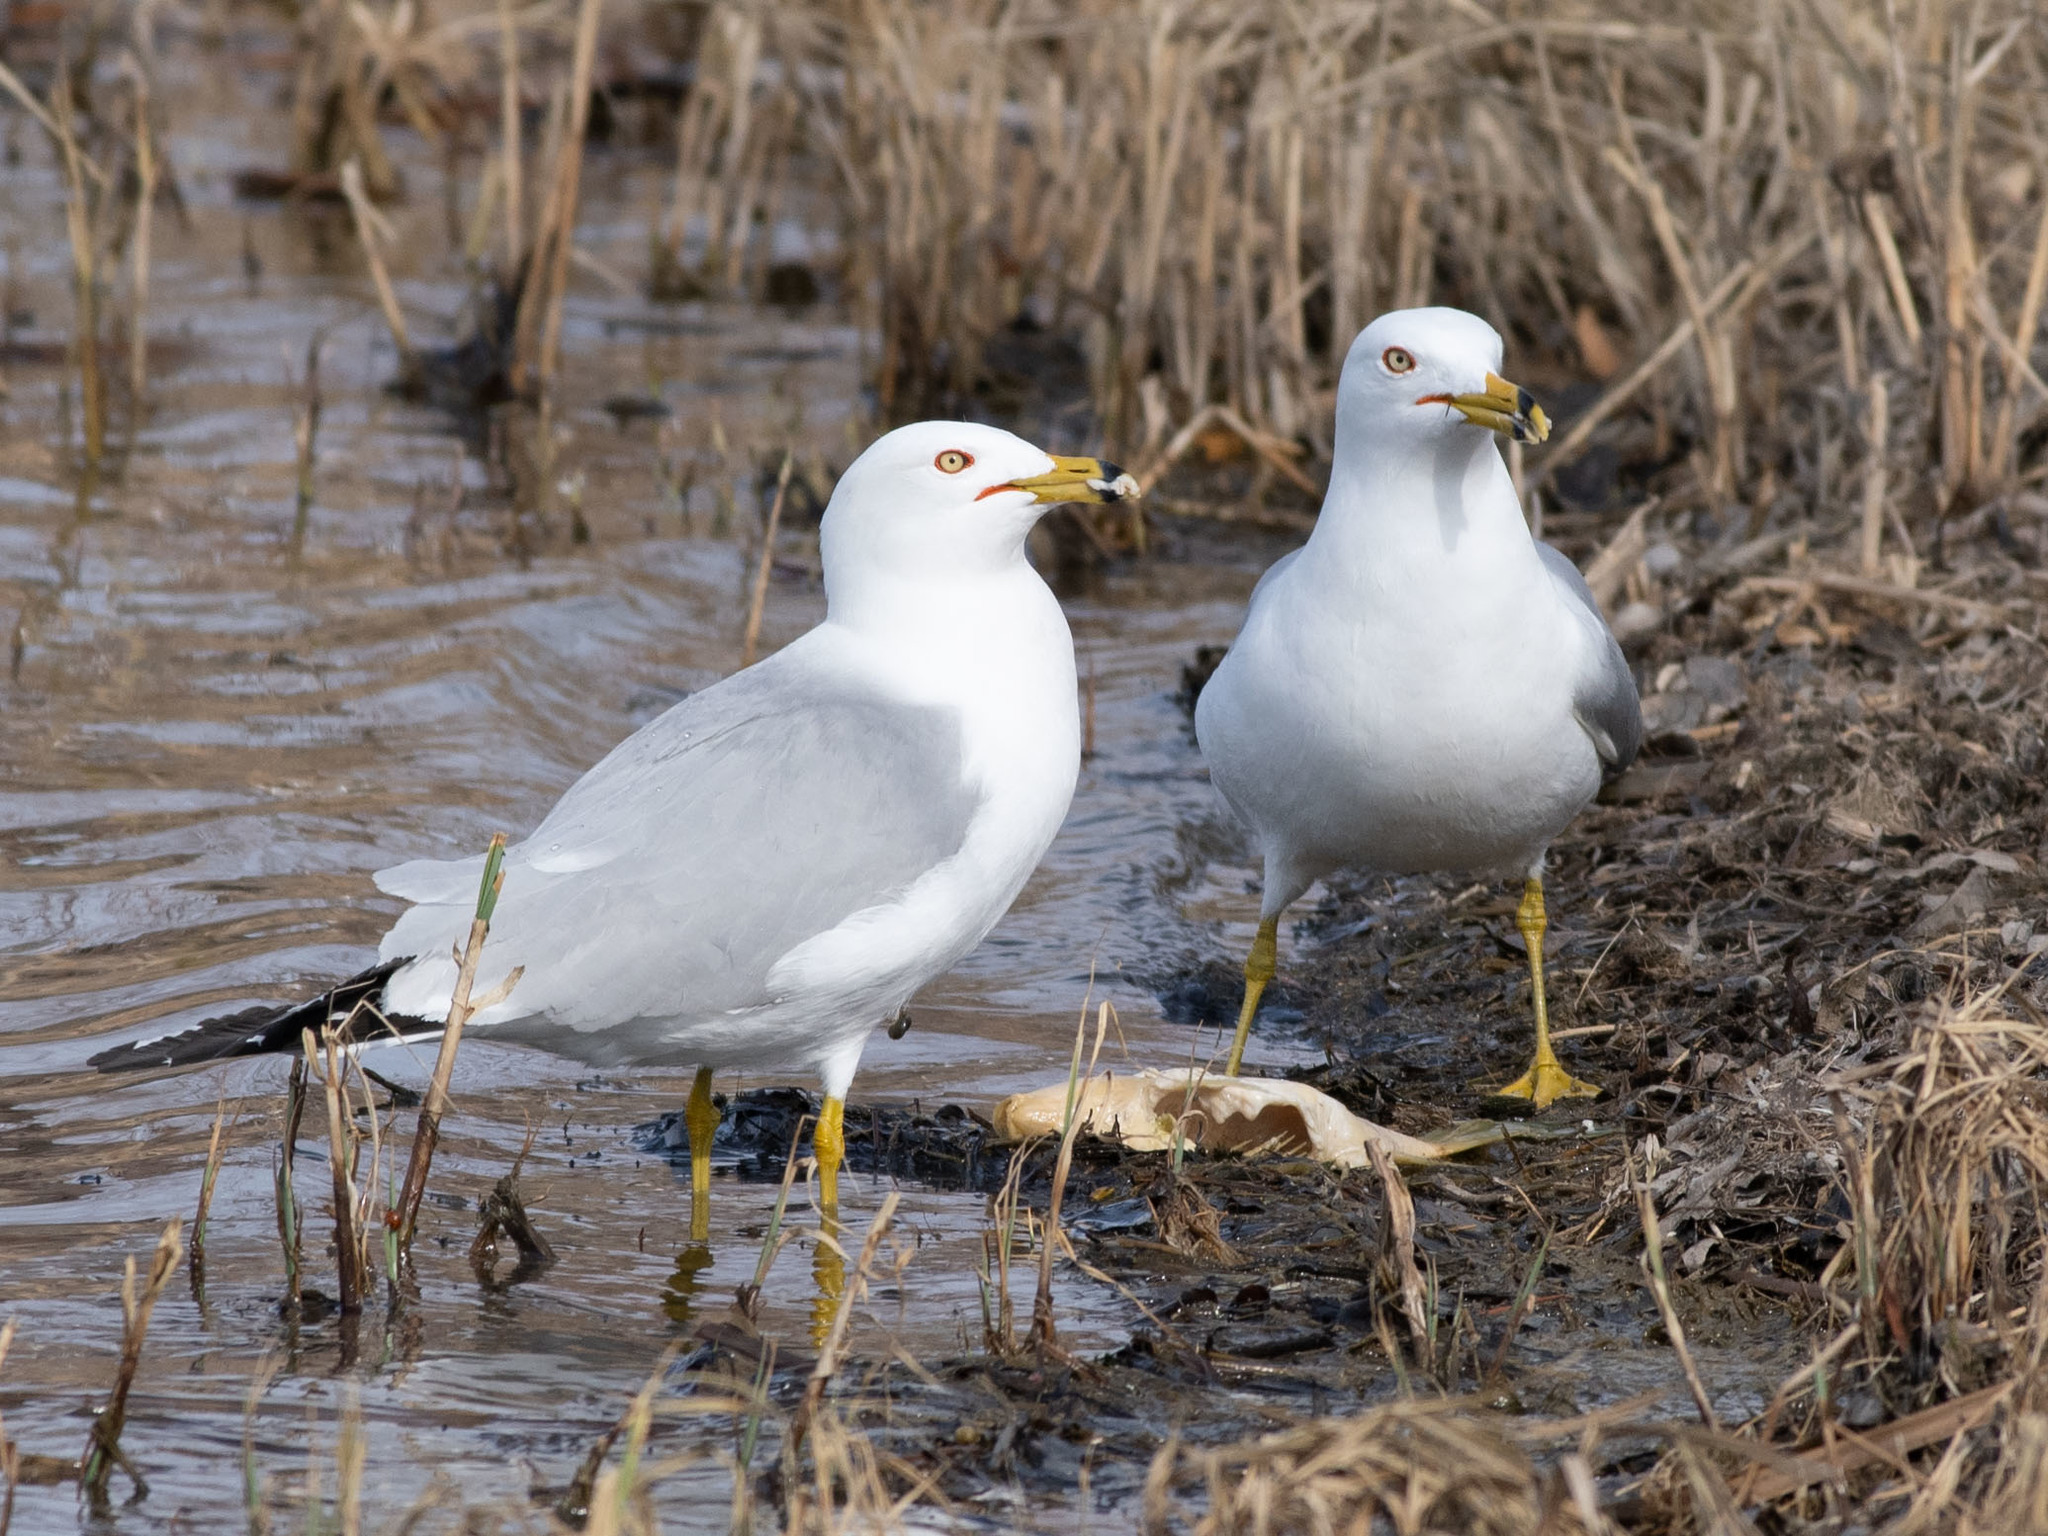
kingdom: Animalia
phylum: Chordata
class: Aves
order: Charadriiformes
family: Laridae
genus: Larus
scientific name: Larus delawarensis
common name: Ring-billed gull
